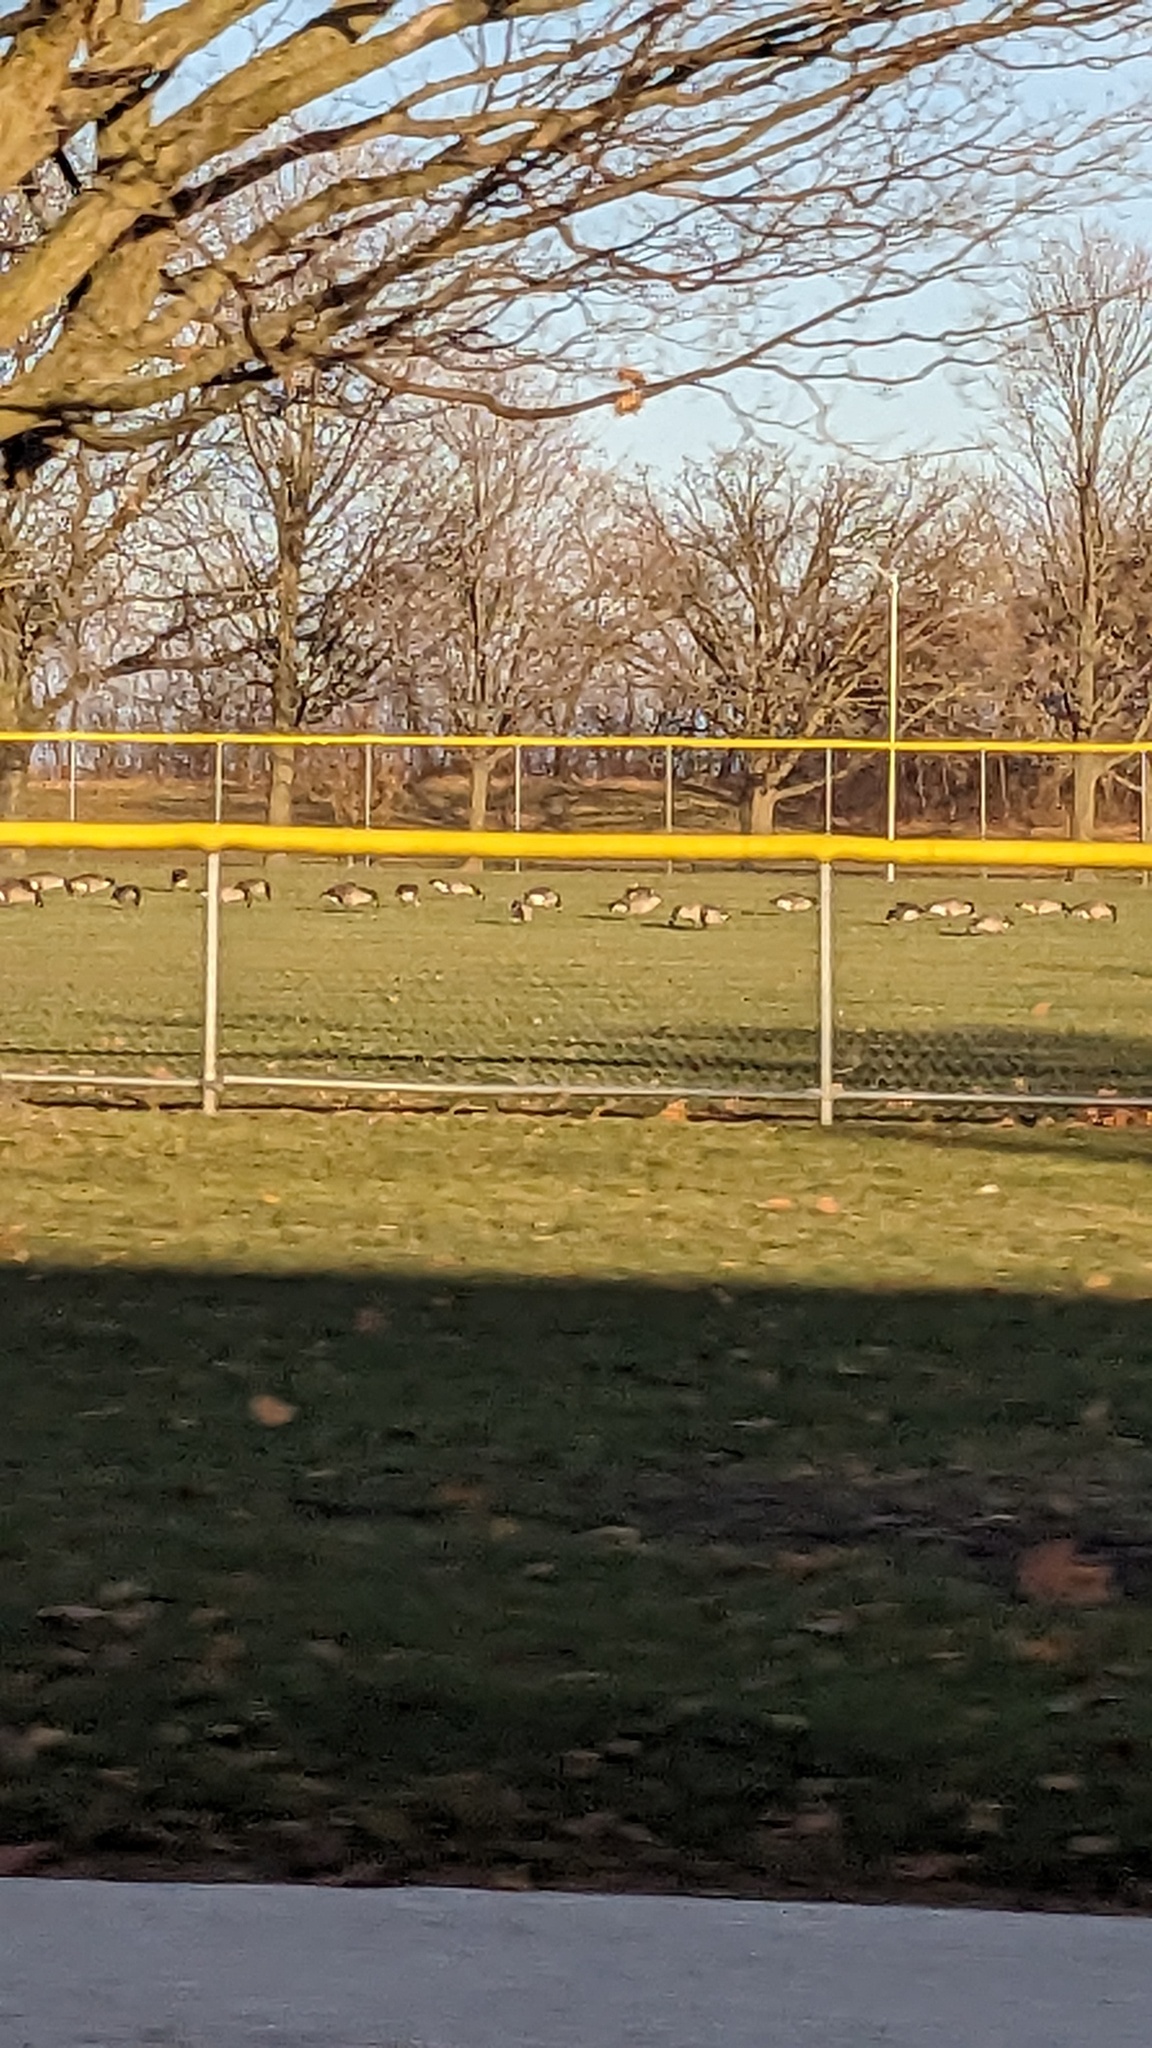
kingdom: Animalia
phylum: Chordata
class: Aves
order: Anseriformes
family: Anatidae
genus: Branta
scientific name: Branta canadensis
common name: Canada goose
